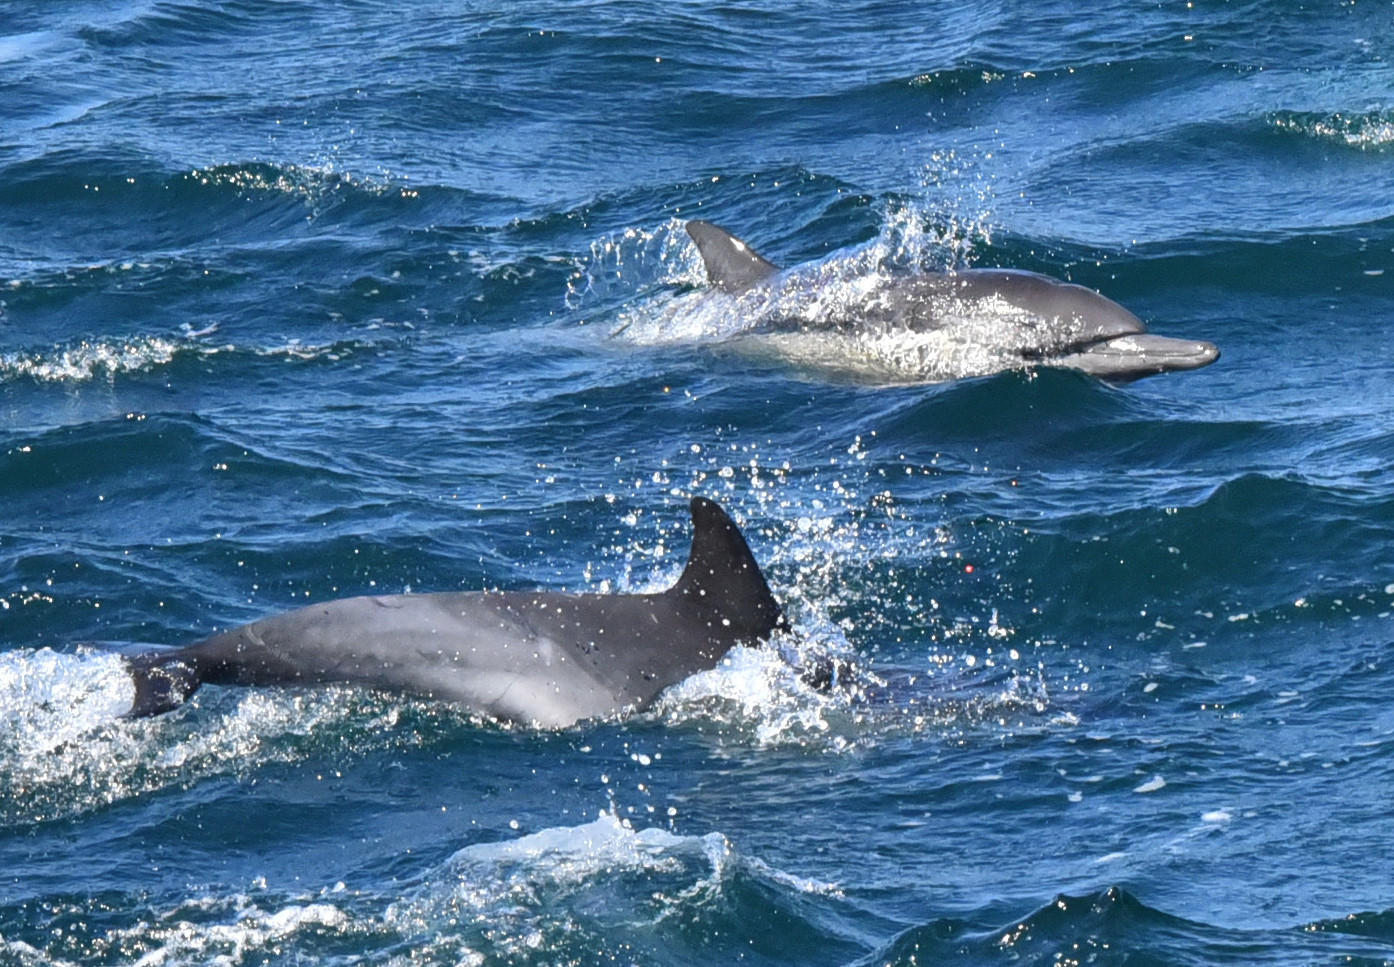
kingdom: Animalia
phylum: Chordata
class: Mammalia
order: Cetacea
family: Delphinidae
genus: Delphinus
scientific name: Delphinus delphis
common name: Common dolphin
